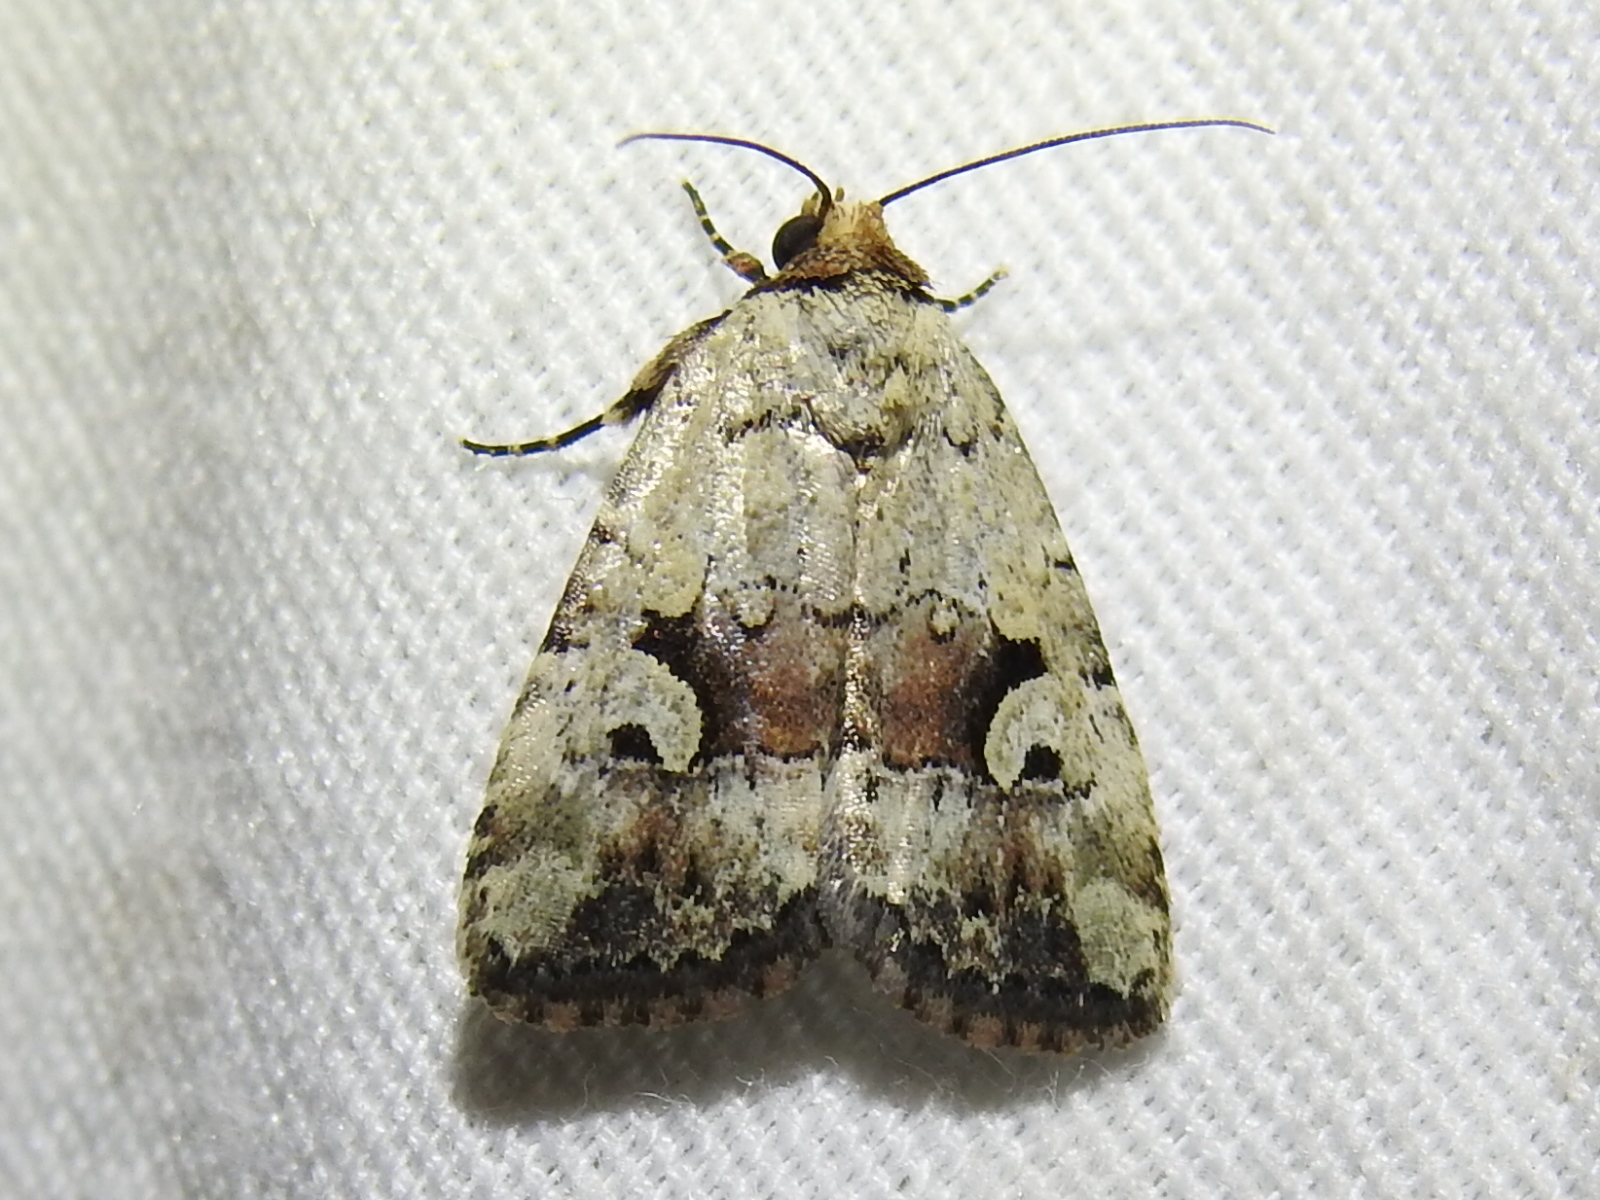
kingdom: Animalia
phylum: Arthropoda
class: Insecta
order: Lepidoptera
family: Noctuidae
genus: Elaphria
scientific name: Elaphria festivoides
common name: Festive midget
